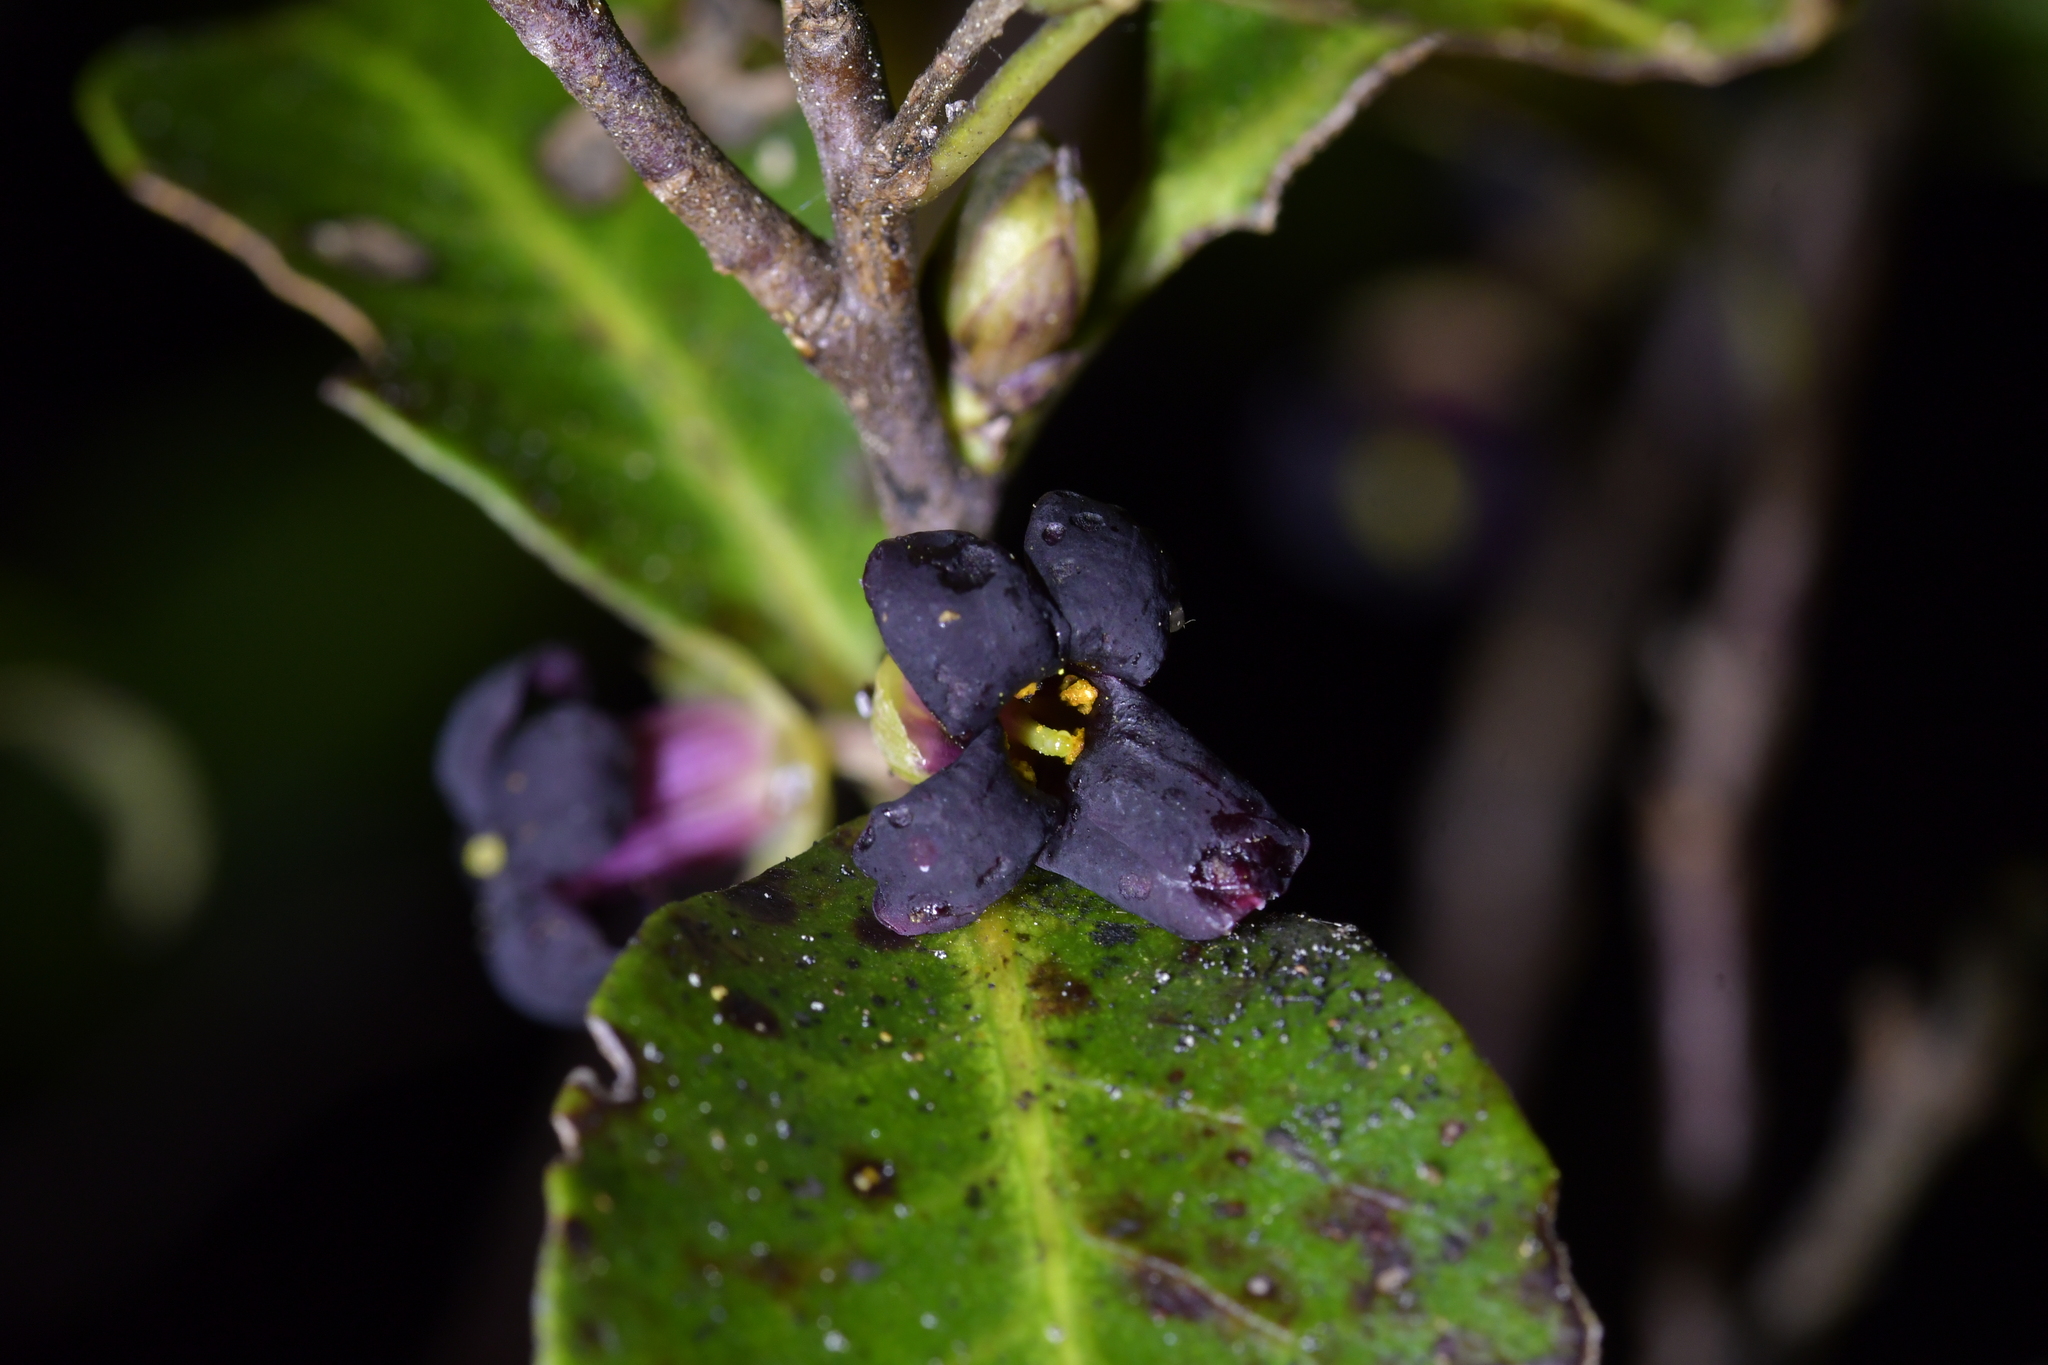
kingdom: Plantae
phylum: Tracheophyta
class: Magnoliopsida
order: Apiales
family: Pittosporaceae
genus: Pittosporum
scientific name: Pittosporum tenuifolium
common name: Kohuhu
